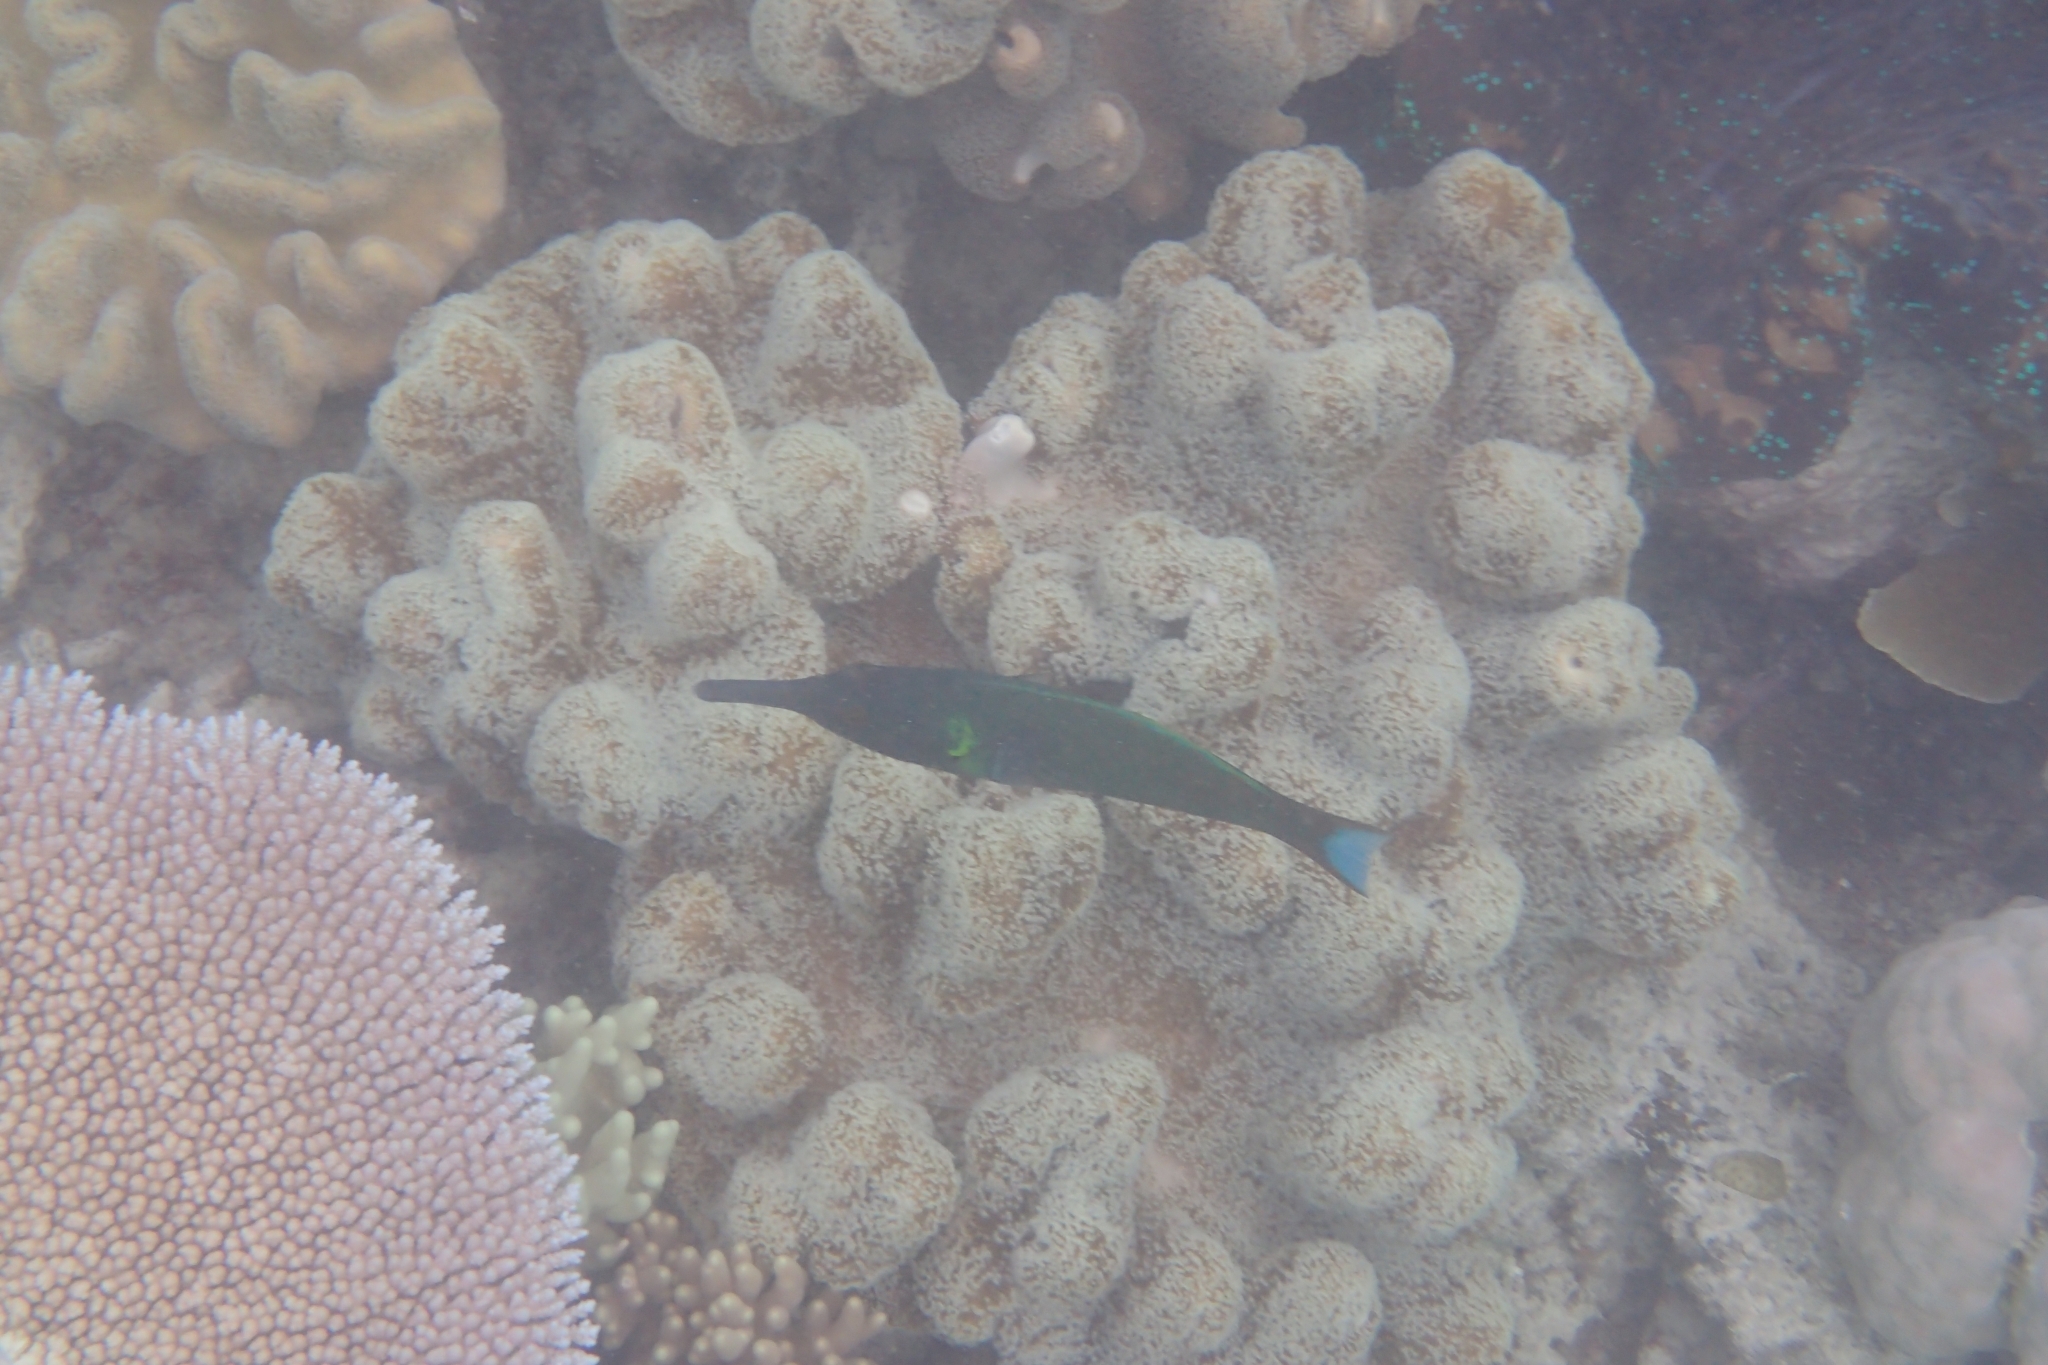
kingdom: Animalia
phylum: Chordata
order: Perciformes
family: Labridae
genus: Gomphosus
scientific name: Gomphosus varius
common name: Bird wrasse
